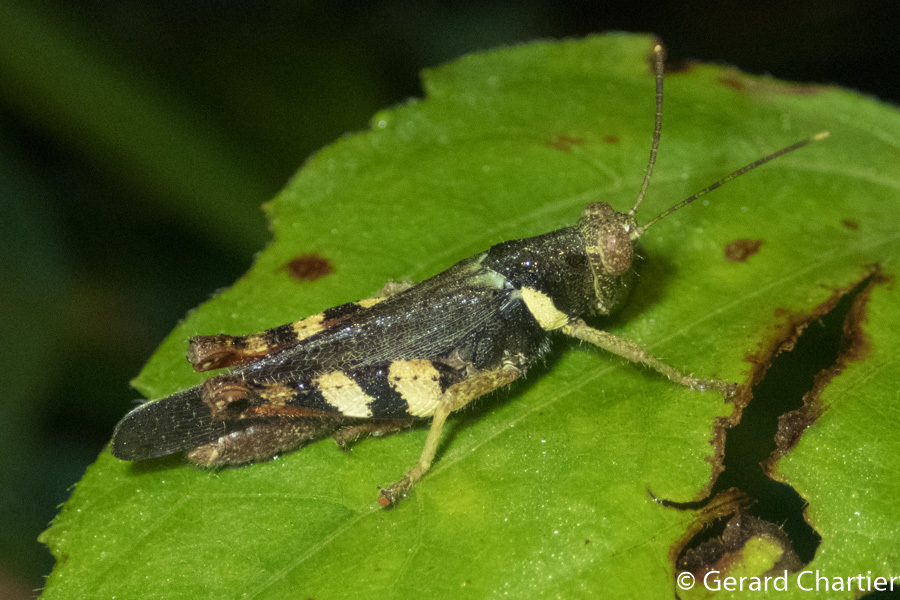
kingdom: Animalia
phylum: Arthropoda
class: Insecta
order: Orthoptera
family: Acrididae
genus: Apalacris
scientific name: Apalacris varicornis
